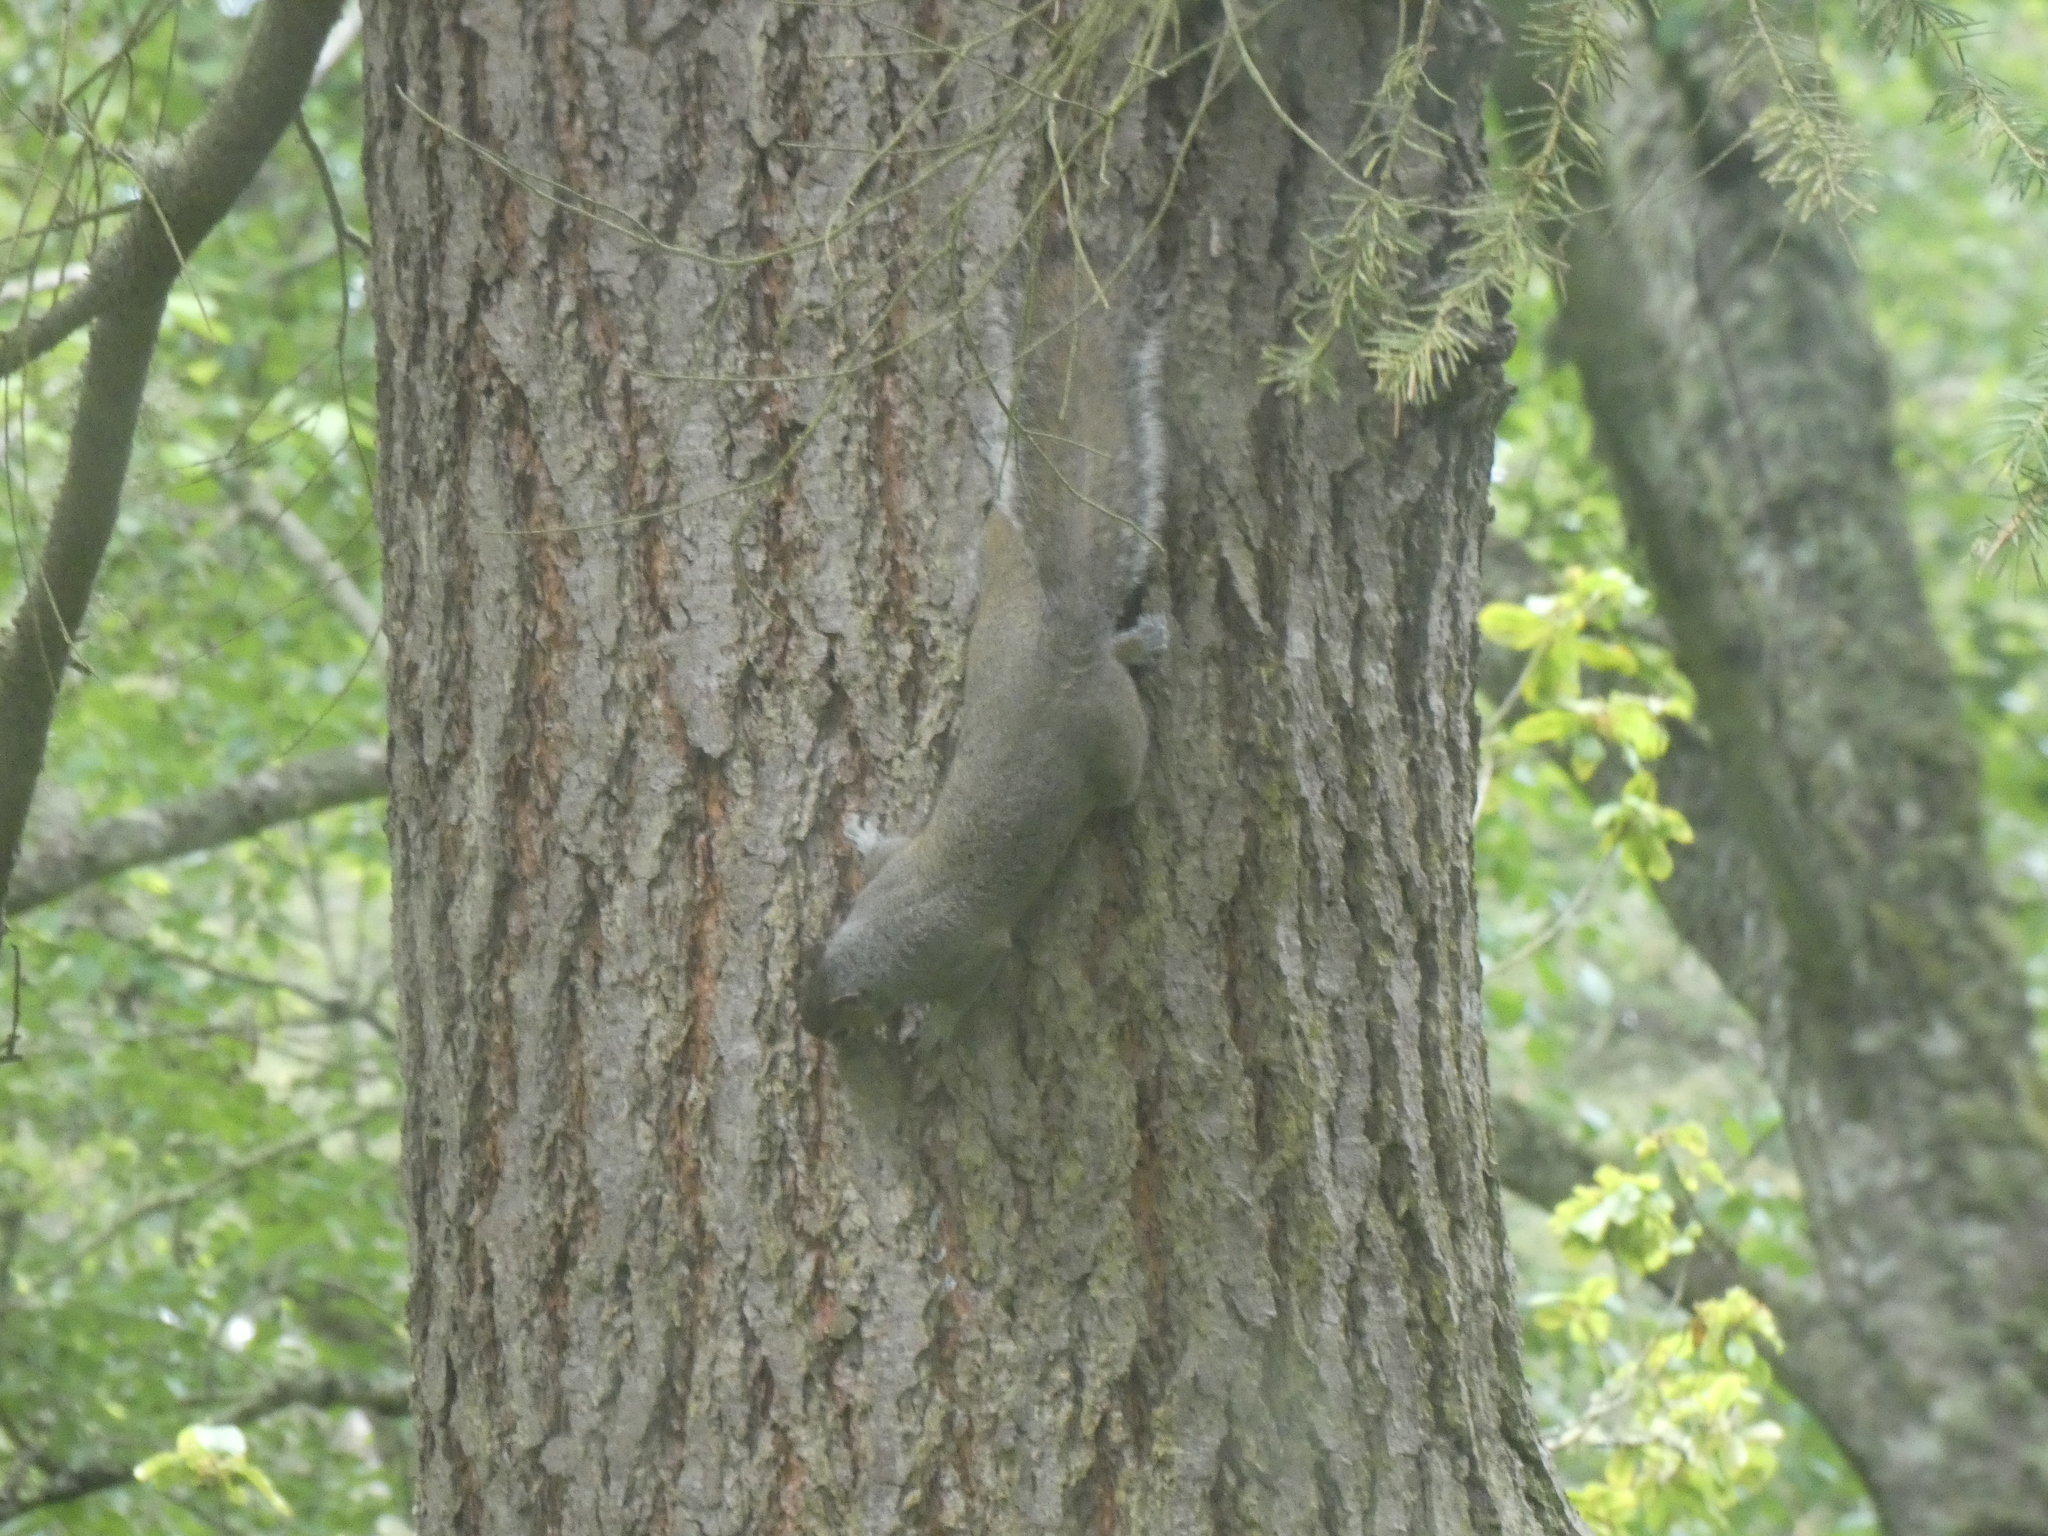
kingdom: Animalia
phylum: Chordata
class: Mammalia
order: Rodentia
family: Sciuridae
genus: Sciurus
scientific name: Sciurus carolinensis
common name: Eastern gray squirrel
